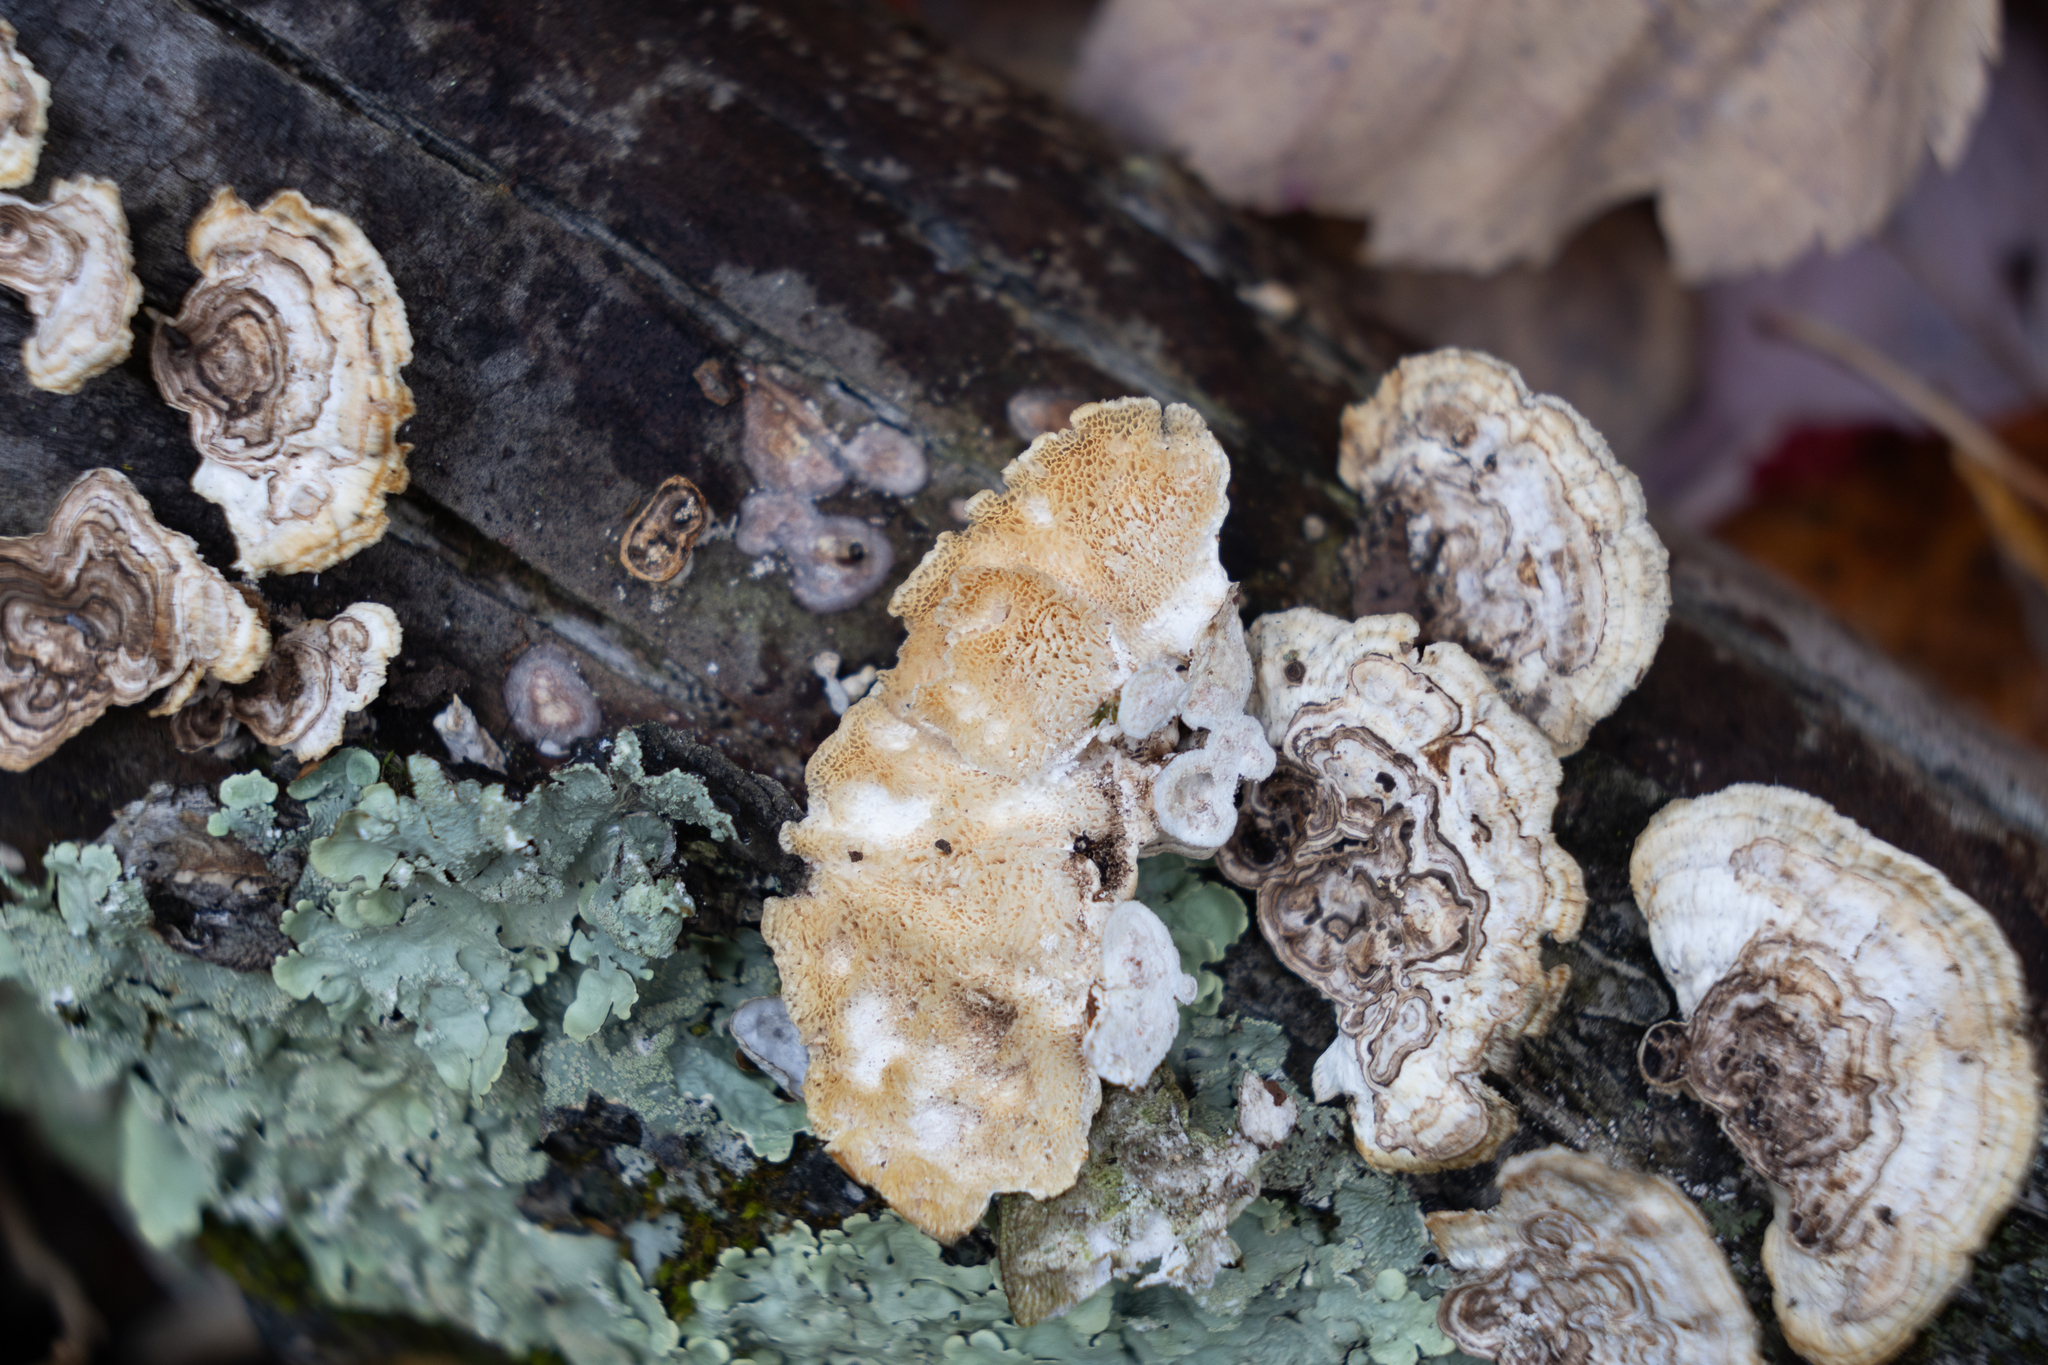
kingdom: Fungi
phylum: Basidiomycota
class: Agaricomycetes
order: Polyporales
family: Polyporaceae
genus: Poronidulus
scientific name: Poronidulus conchifer
